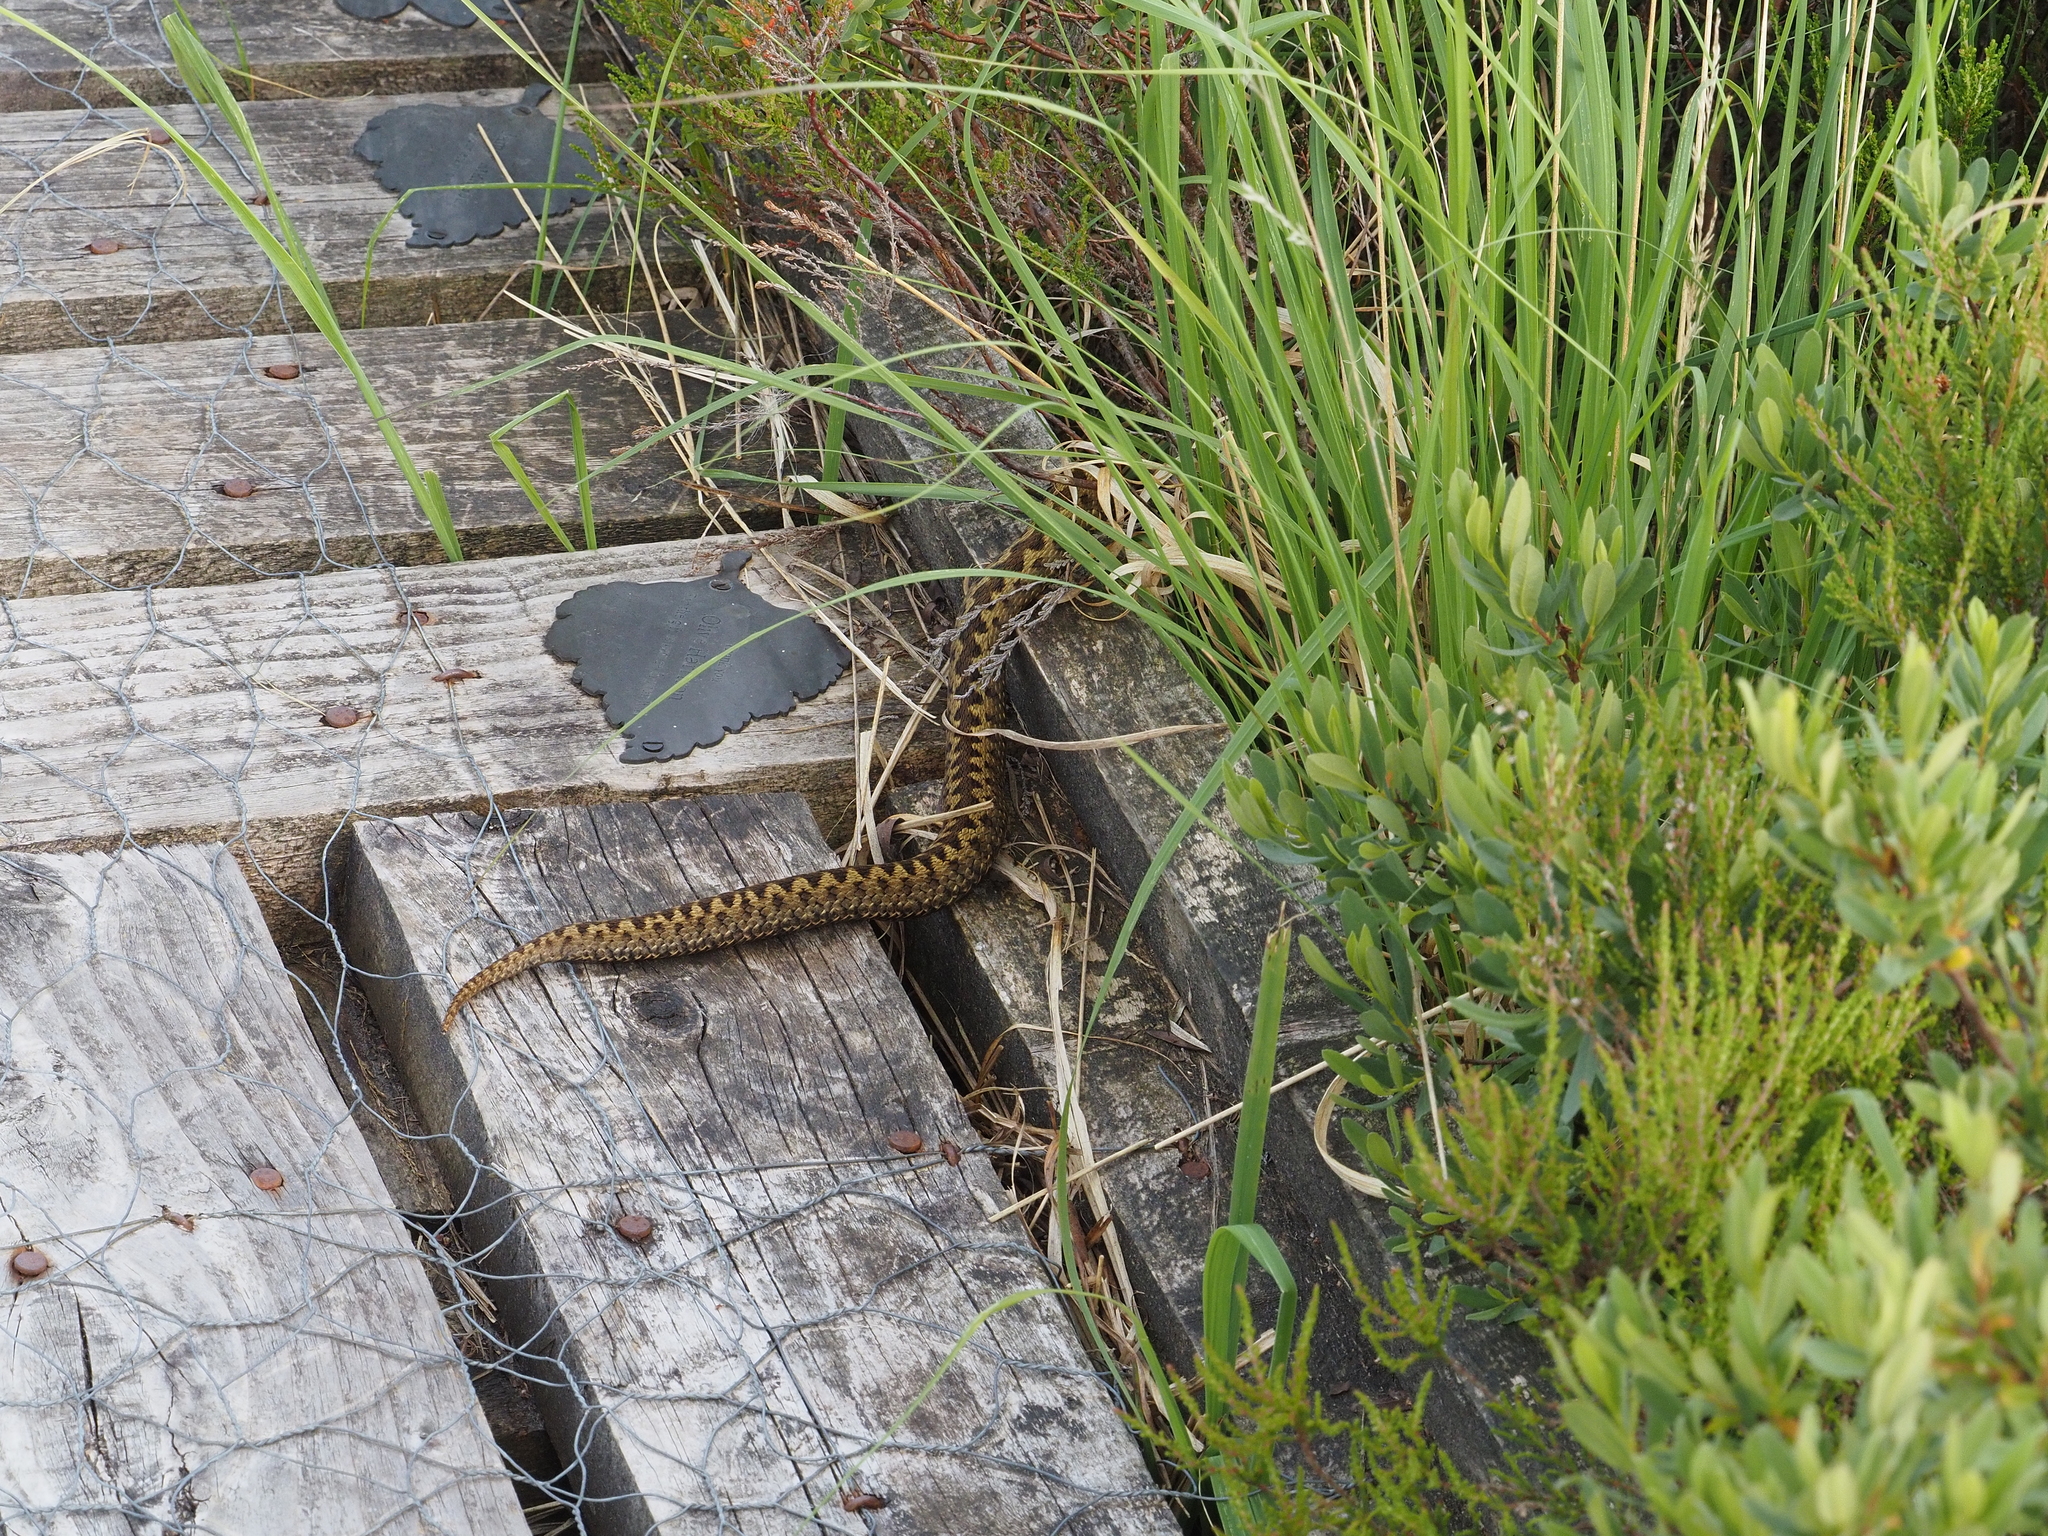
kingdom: Animalia
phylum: Chordata
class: Squamata
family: Viperidae
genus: Vipera
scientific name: Vipera berus
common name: Adder
